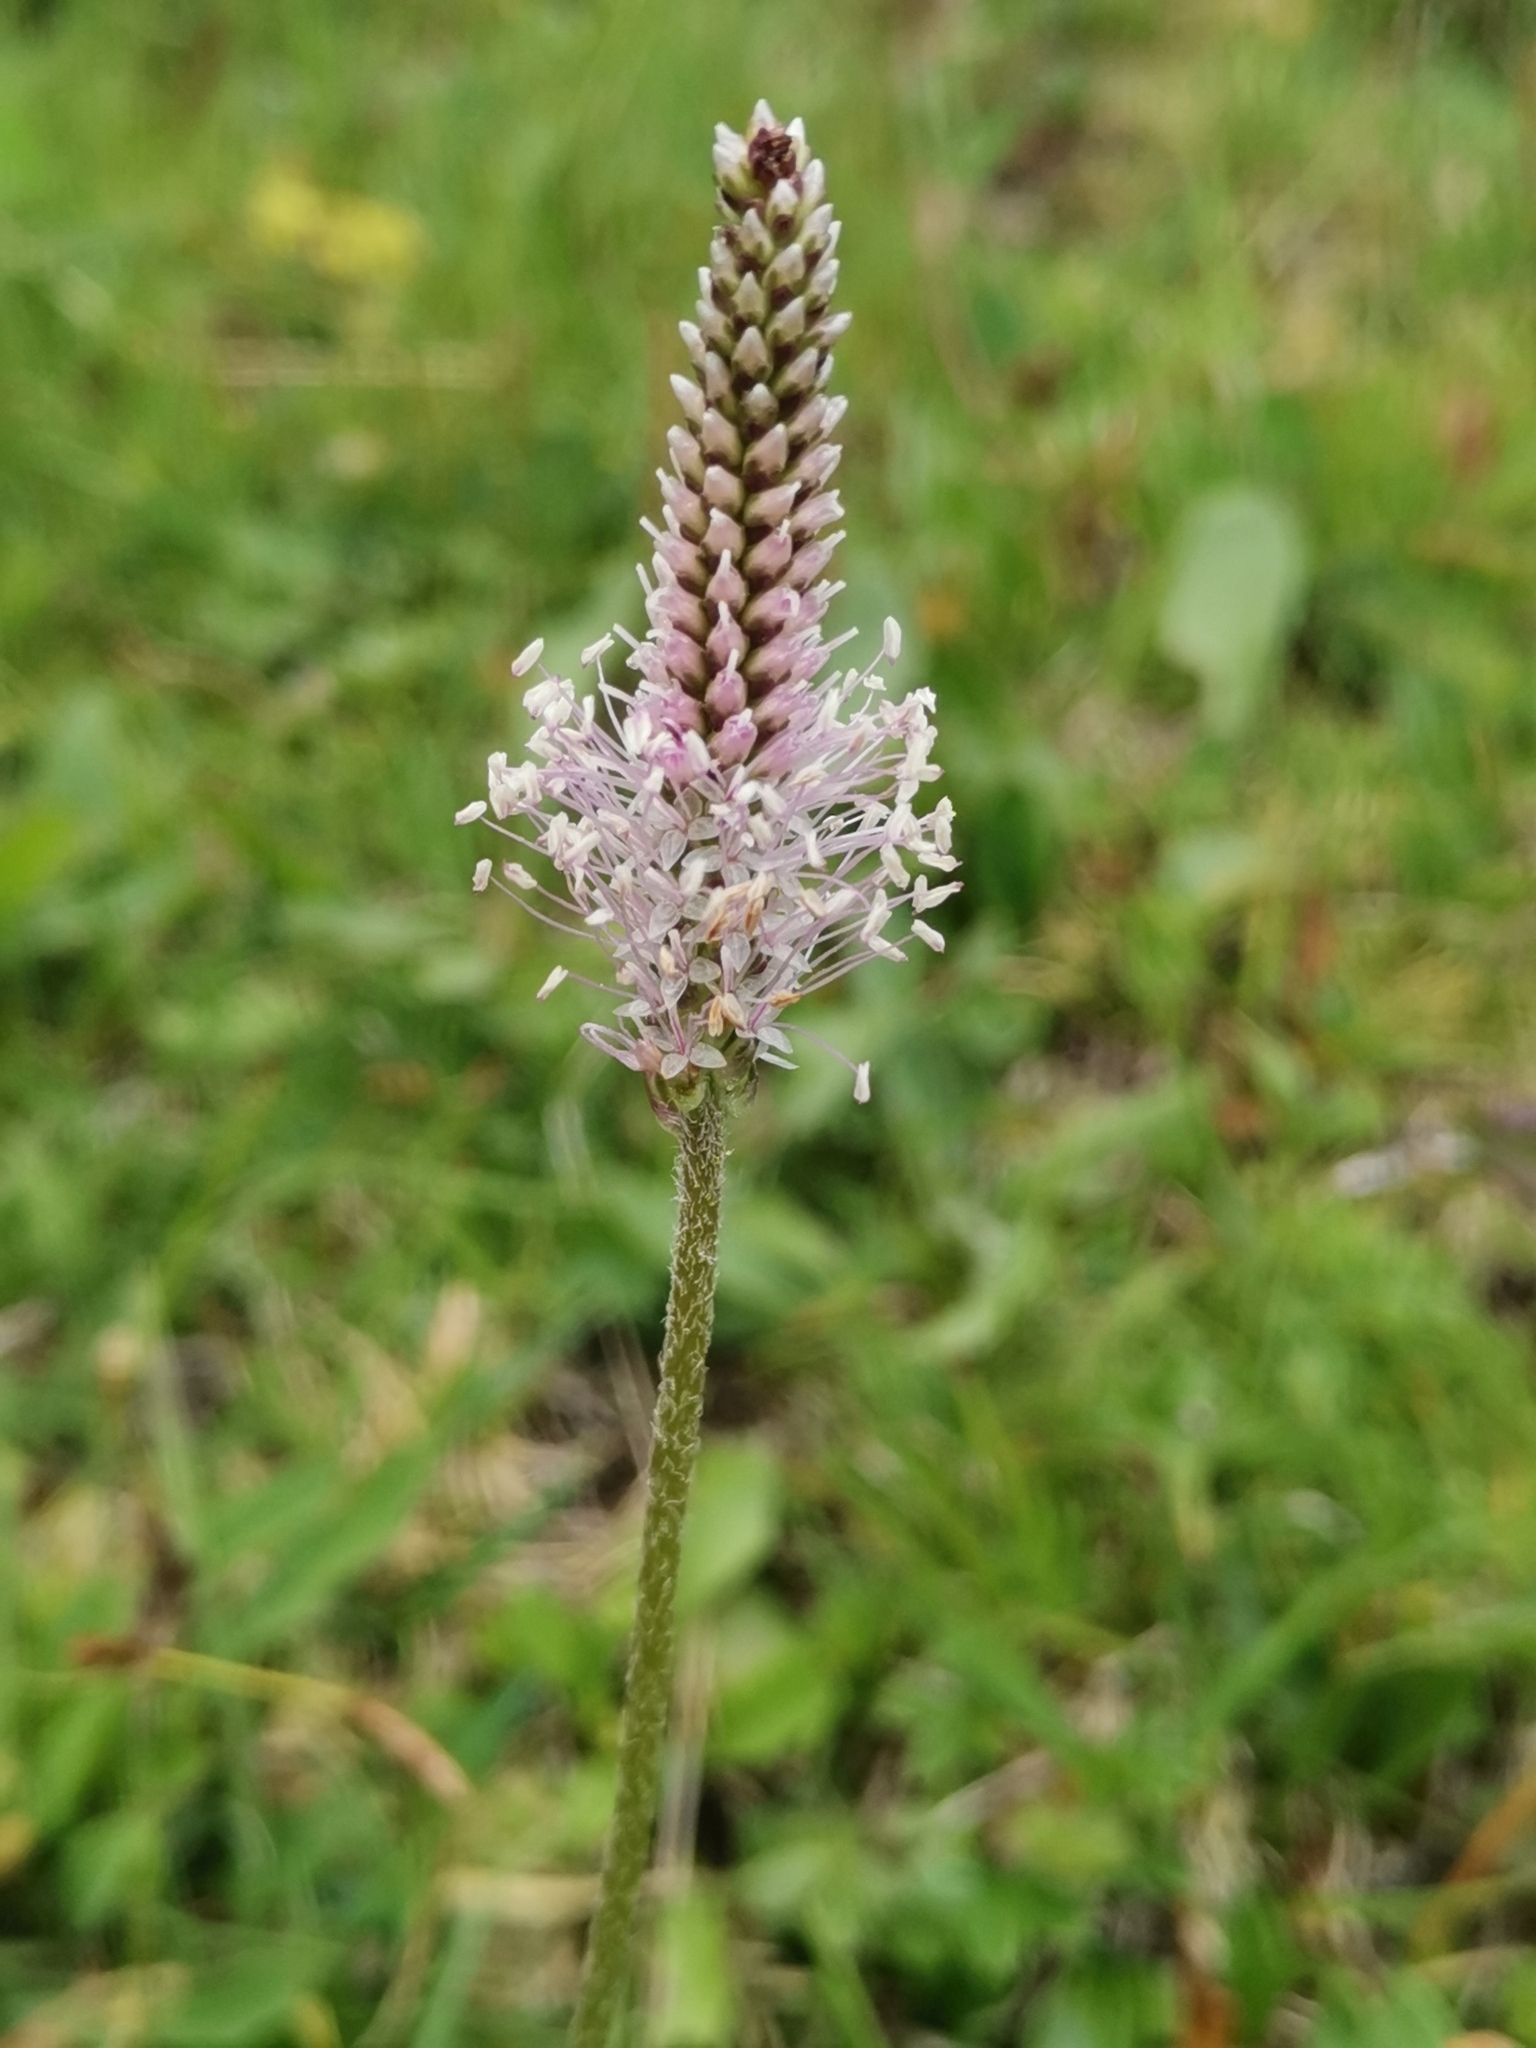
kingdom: Plantae
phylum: Tracheophyta
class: Magnoliopsida
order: Lamiales
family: Plantaginaceae
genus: Plantago
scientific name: Plantago media
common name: Hoary plantain
